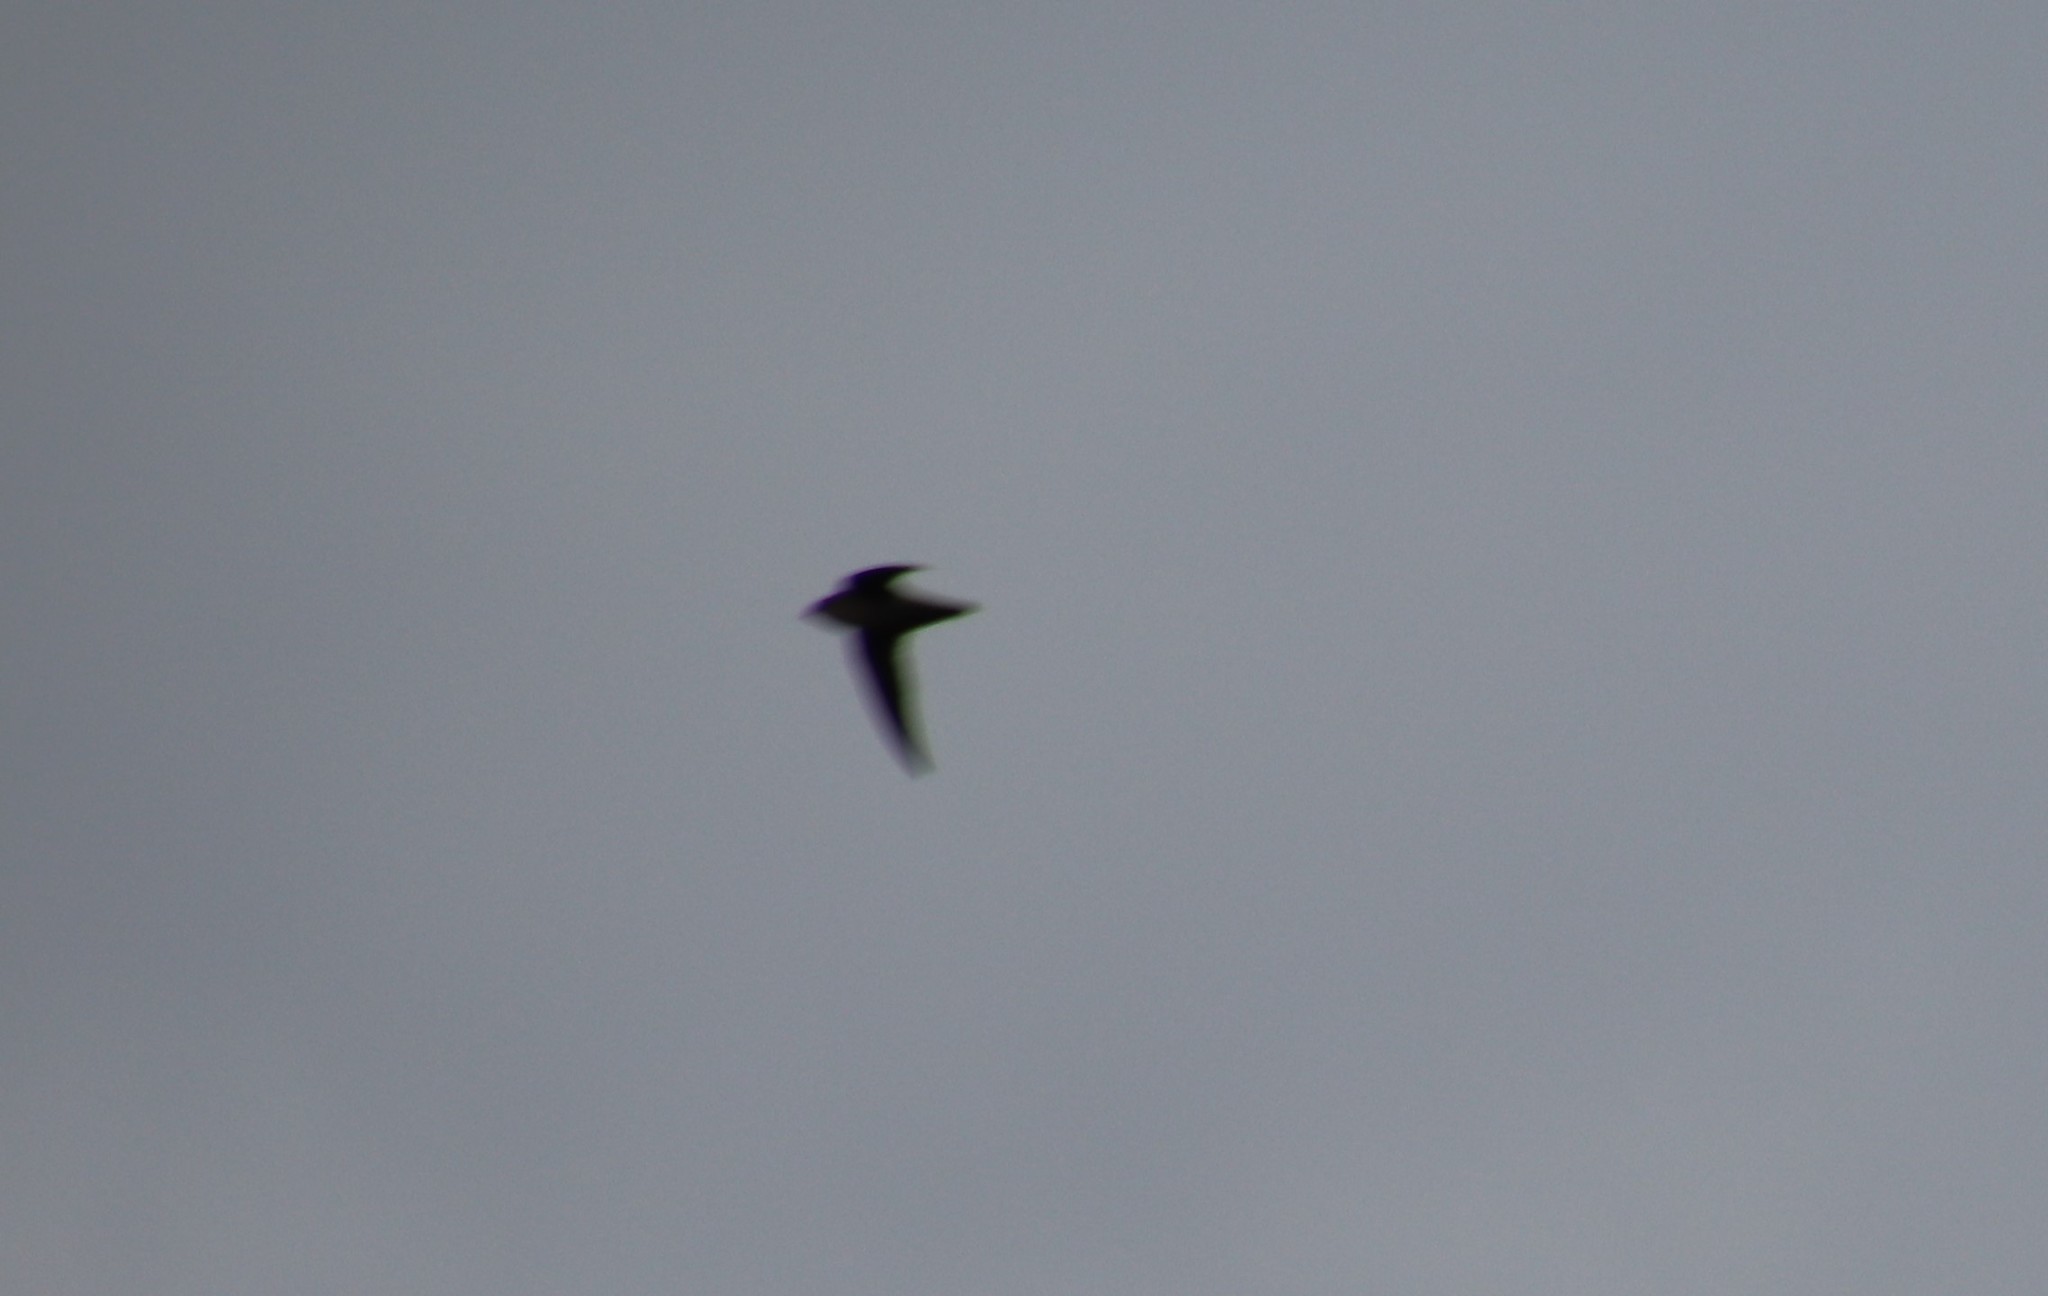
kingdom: Animalia
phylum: Chordata
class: Aves
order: Apodiformes
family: Apodidae
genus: Chaetura
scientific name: Chaetura vauxi
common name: Vaux's swift
